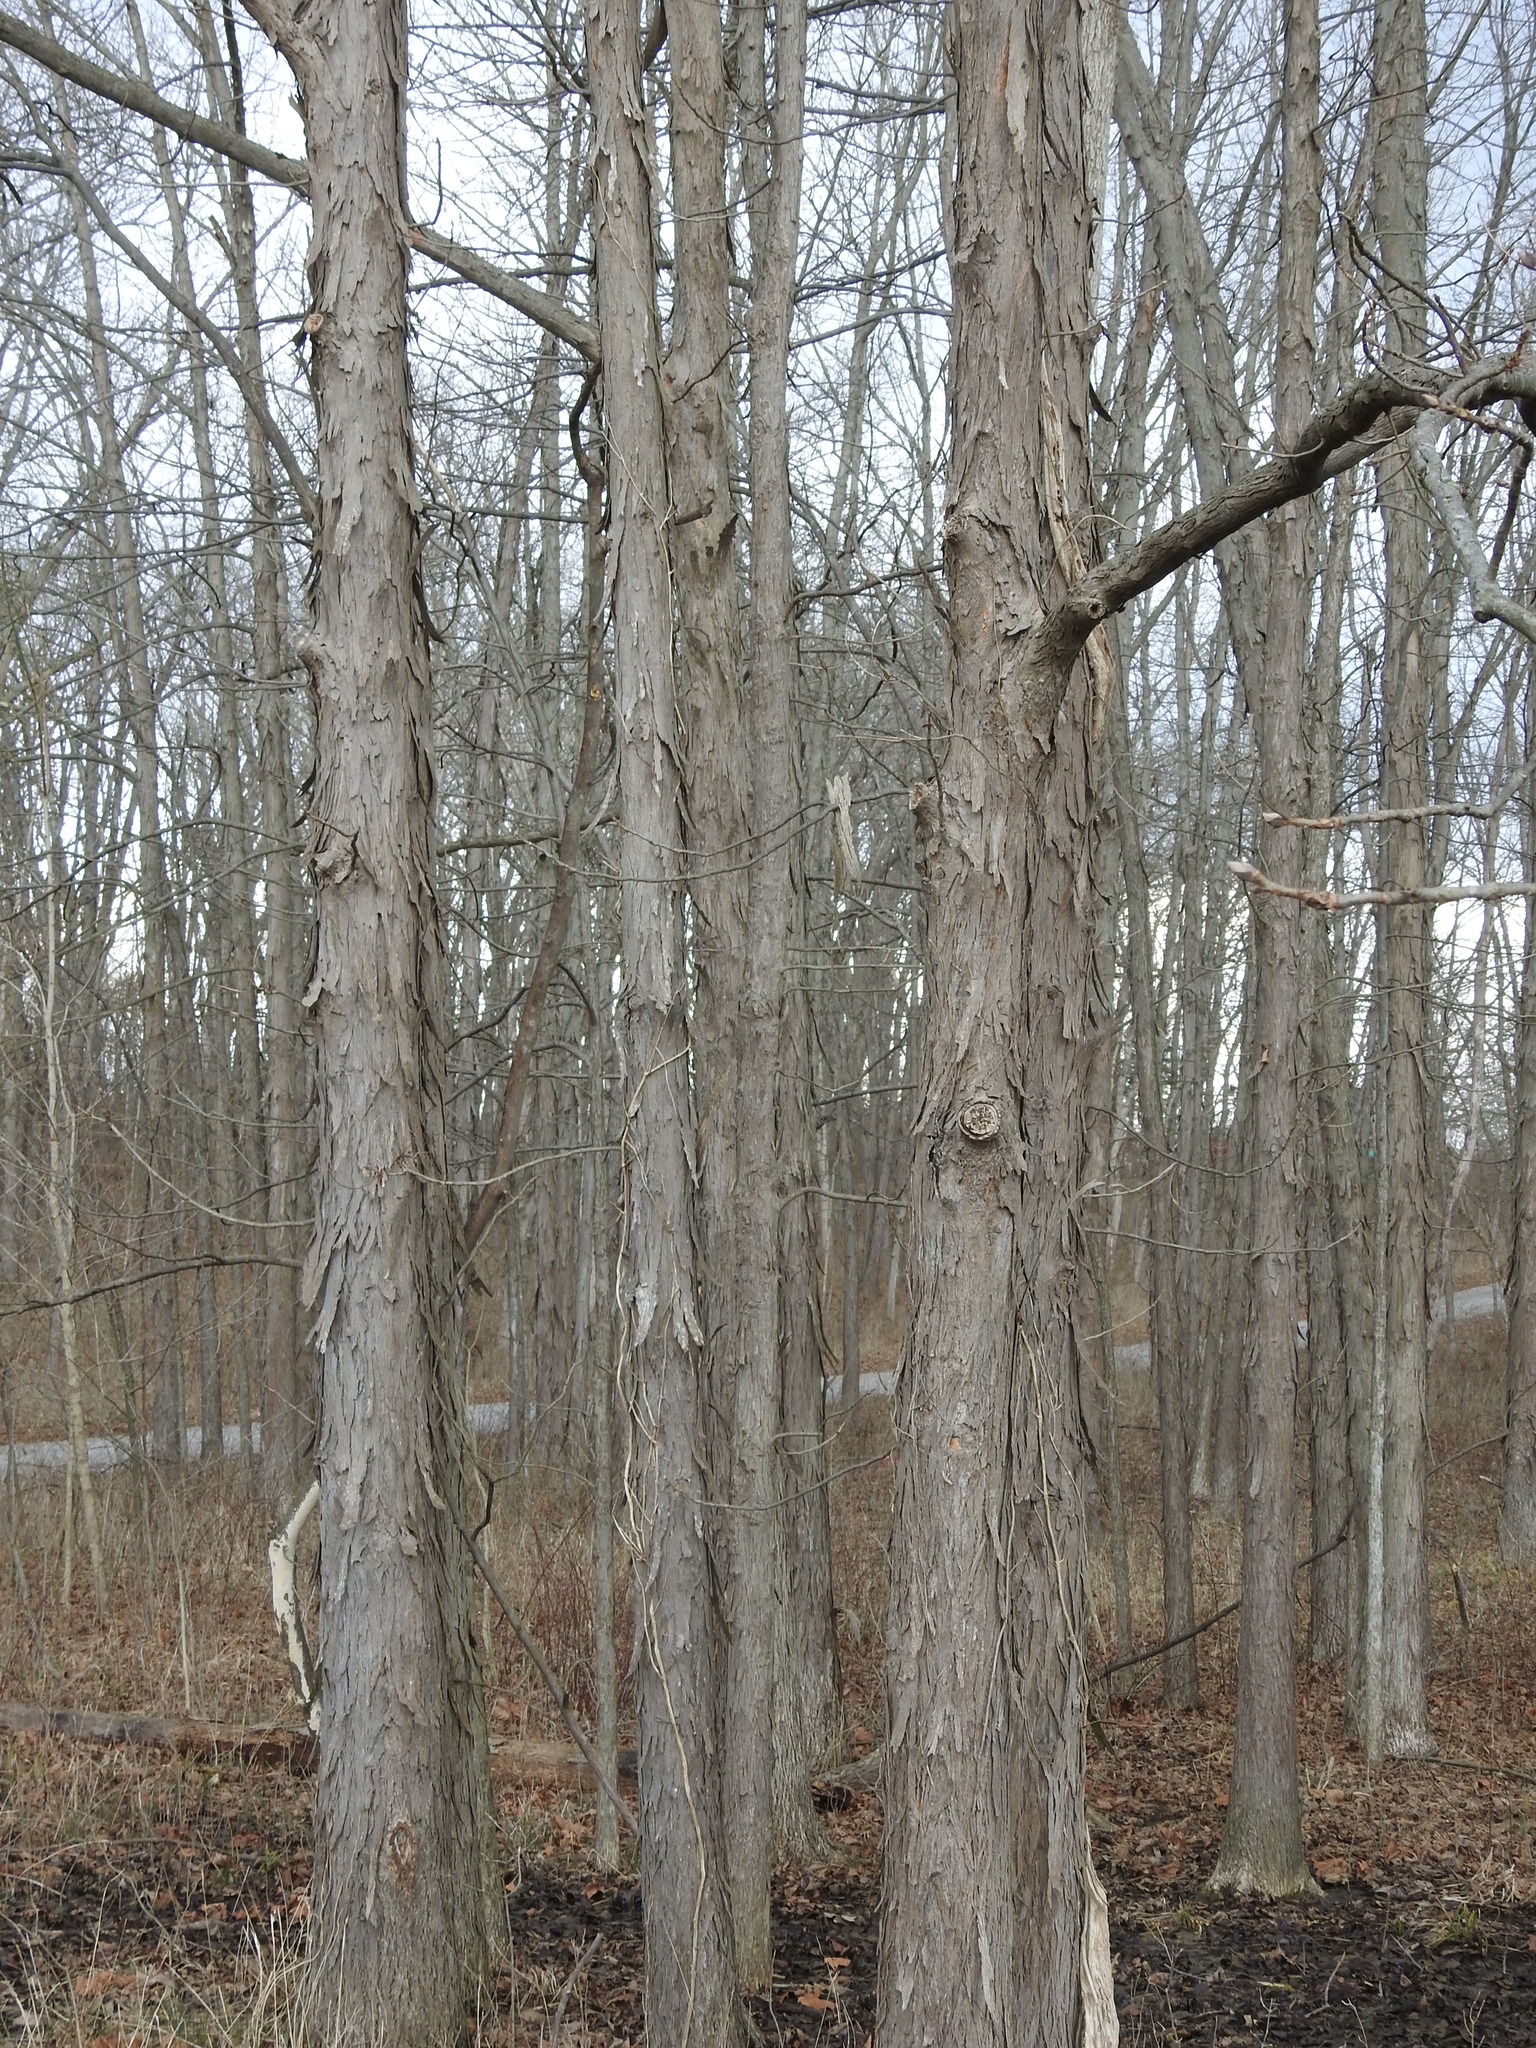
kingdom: Plantae
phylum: Tracheophyta
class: Magnoliopsida
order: Fagales
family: Juglandaceae
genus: Carya
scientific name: Carya laciniosa
